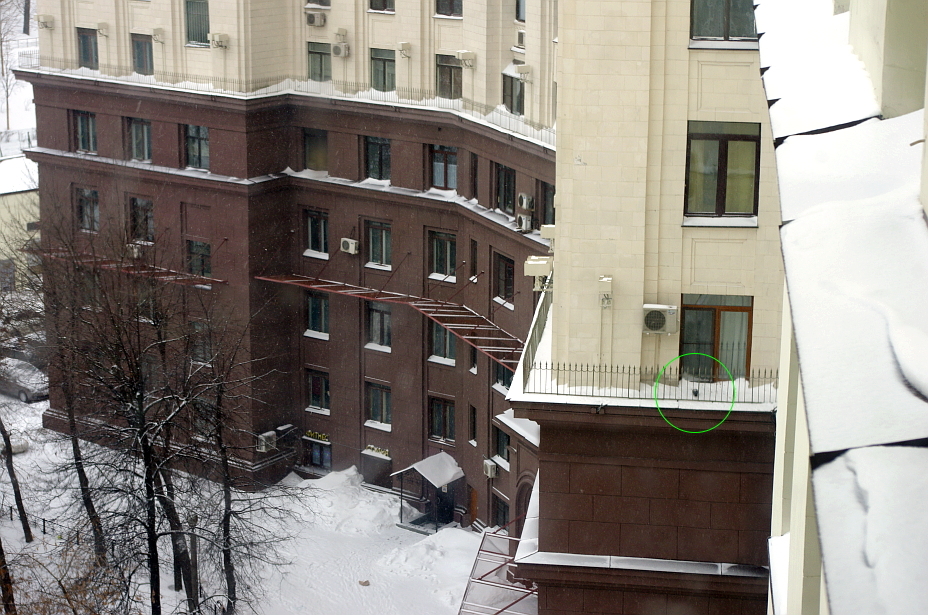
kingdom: Animalia
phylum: Chordata
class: Aves
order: Columbiformes
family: Columbidae
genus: Columba
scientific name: Columba livia
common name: Rock pigeon
